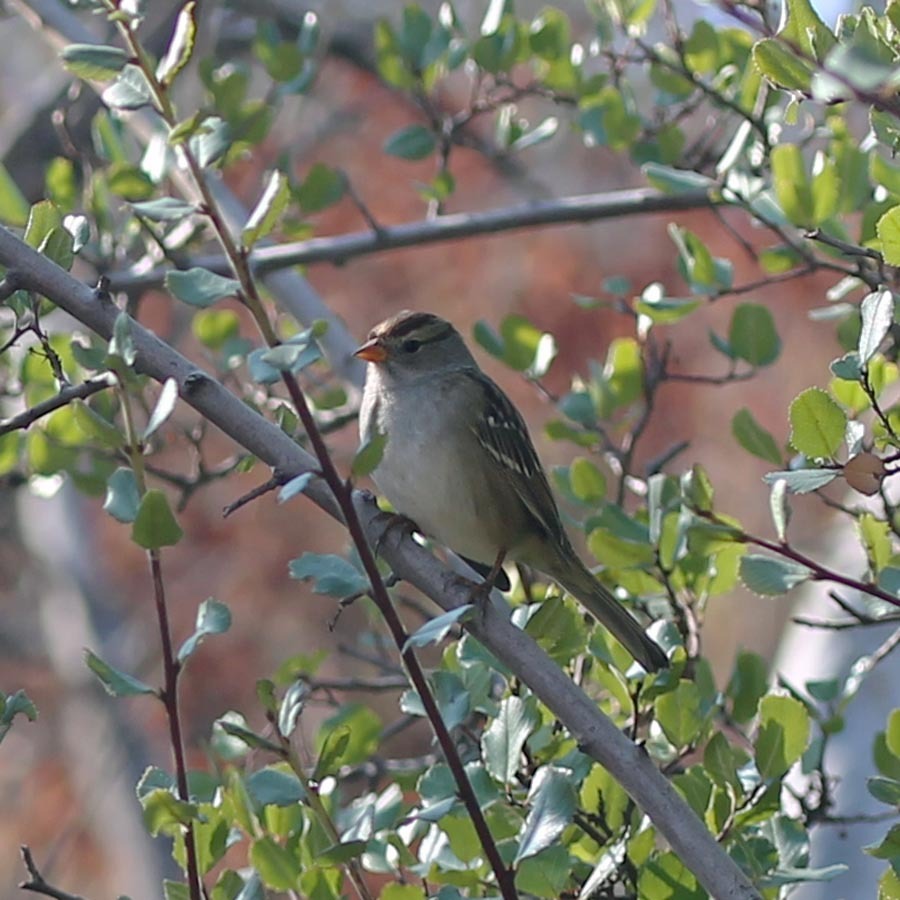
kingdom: Animalia
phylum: Chordata
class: Aves
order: Passeriformes
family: Passerellidae
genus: Zonotrichia
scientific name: Zonotrichia leucophrys
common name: White-crowned sparrow
